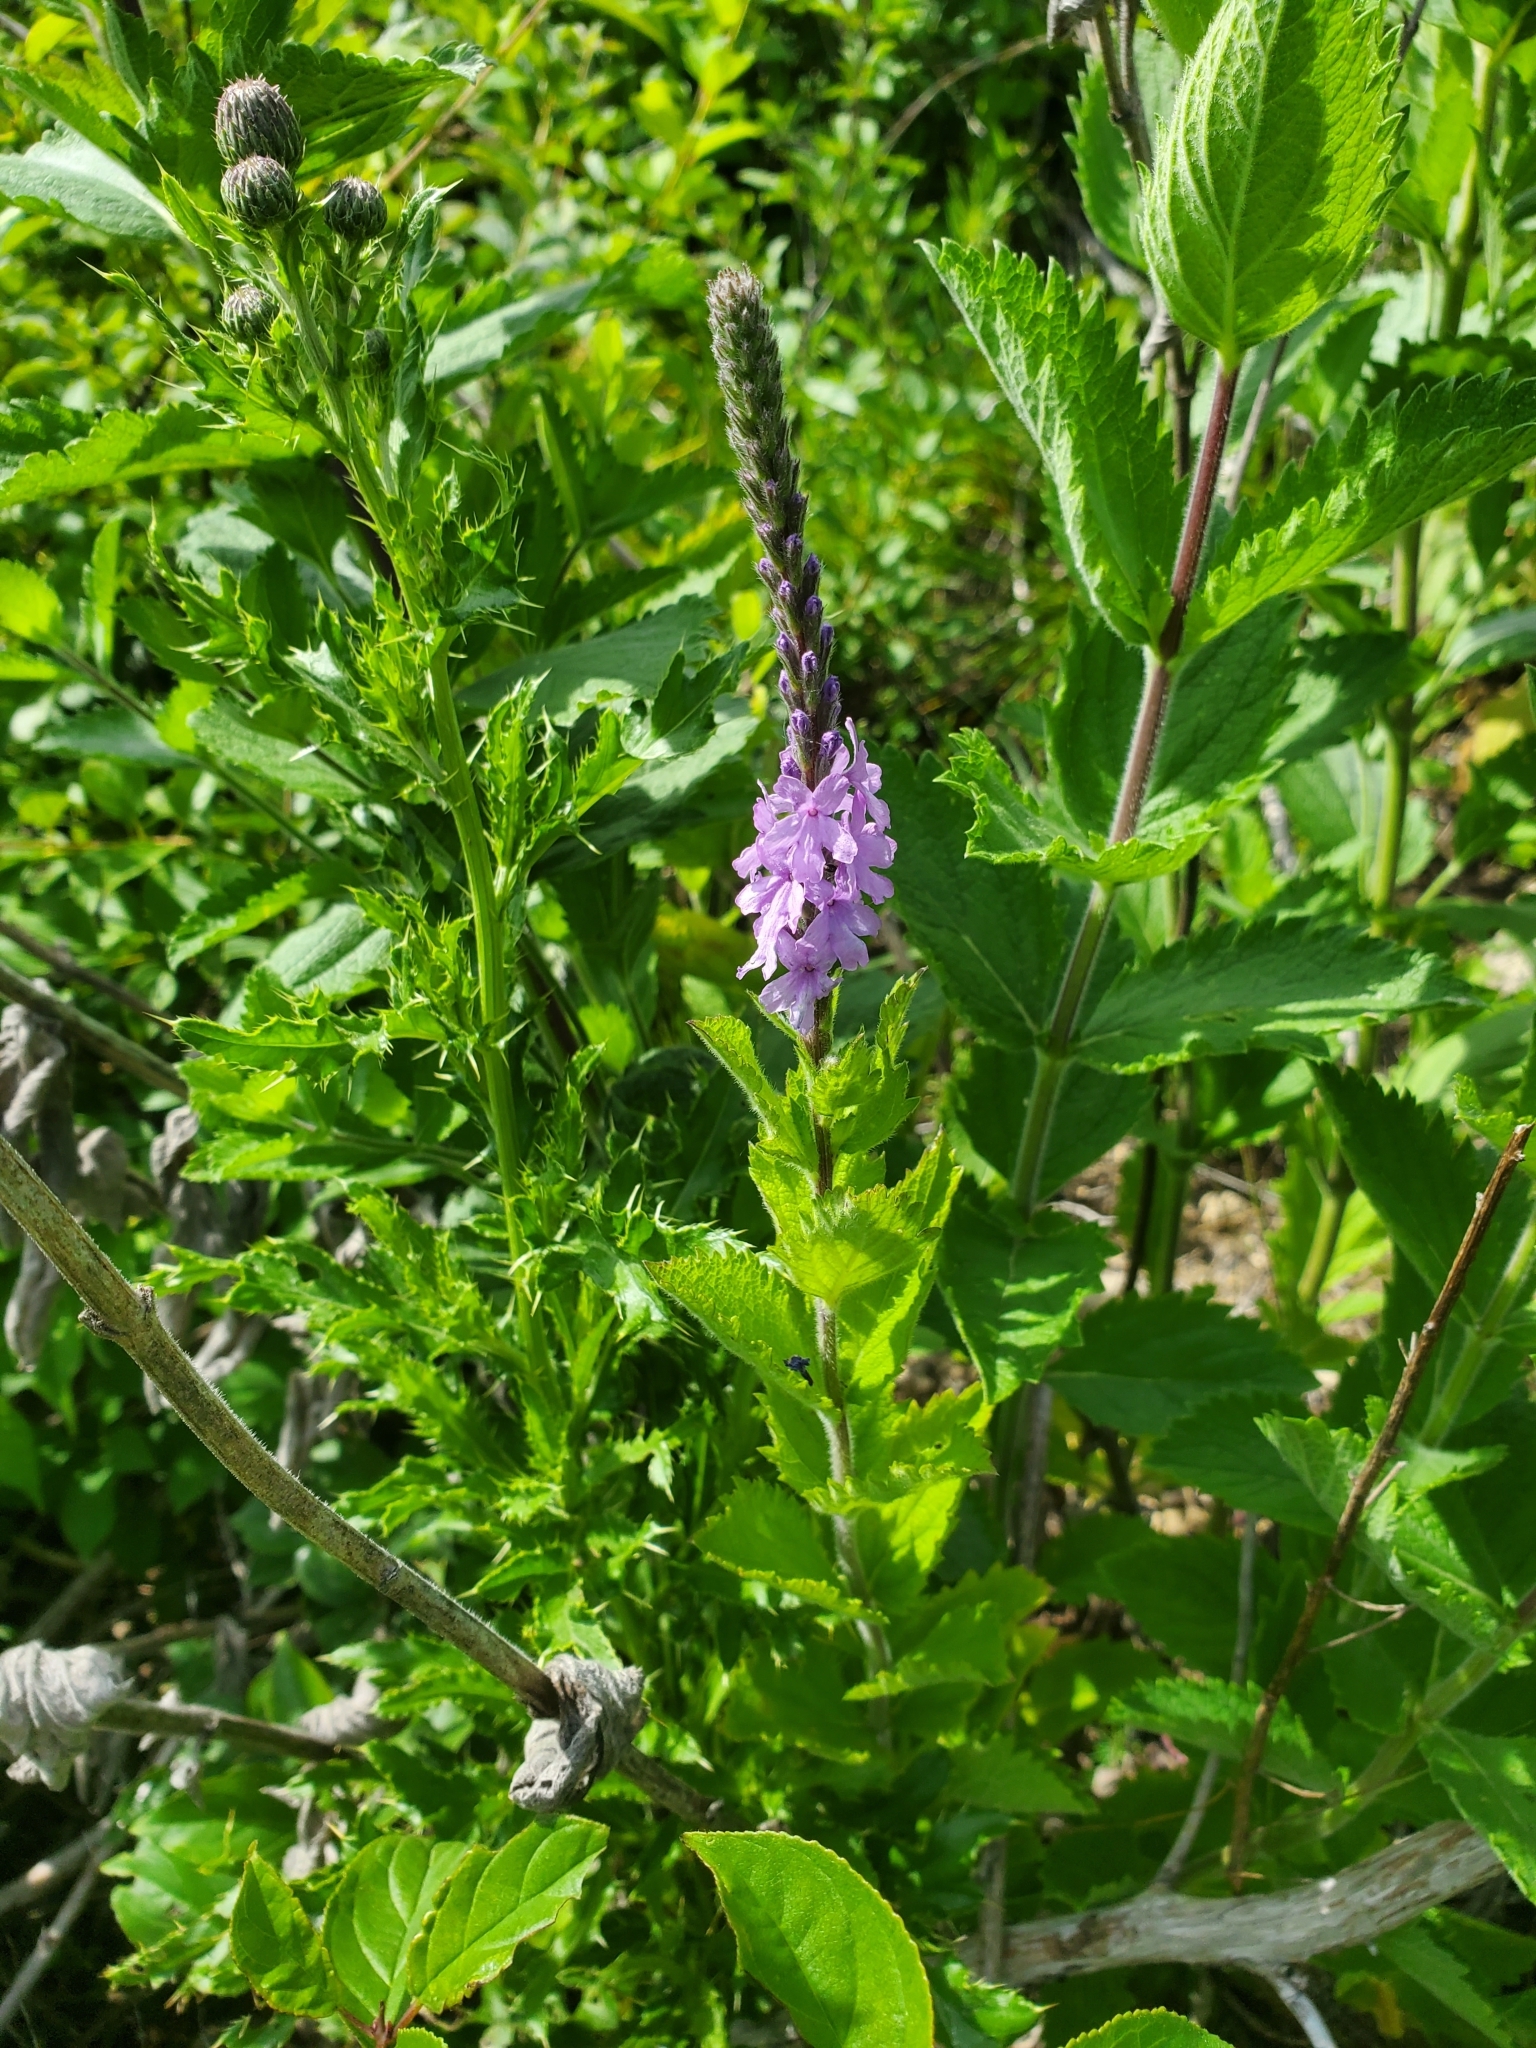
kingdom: Plantae
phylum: Tracheophyta
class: Magnoliopsida
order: Lamiales
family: Verbenaceae
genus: Verbena
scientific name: Verbena stricta
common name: Hoary vervain
